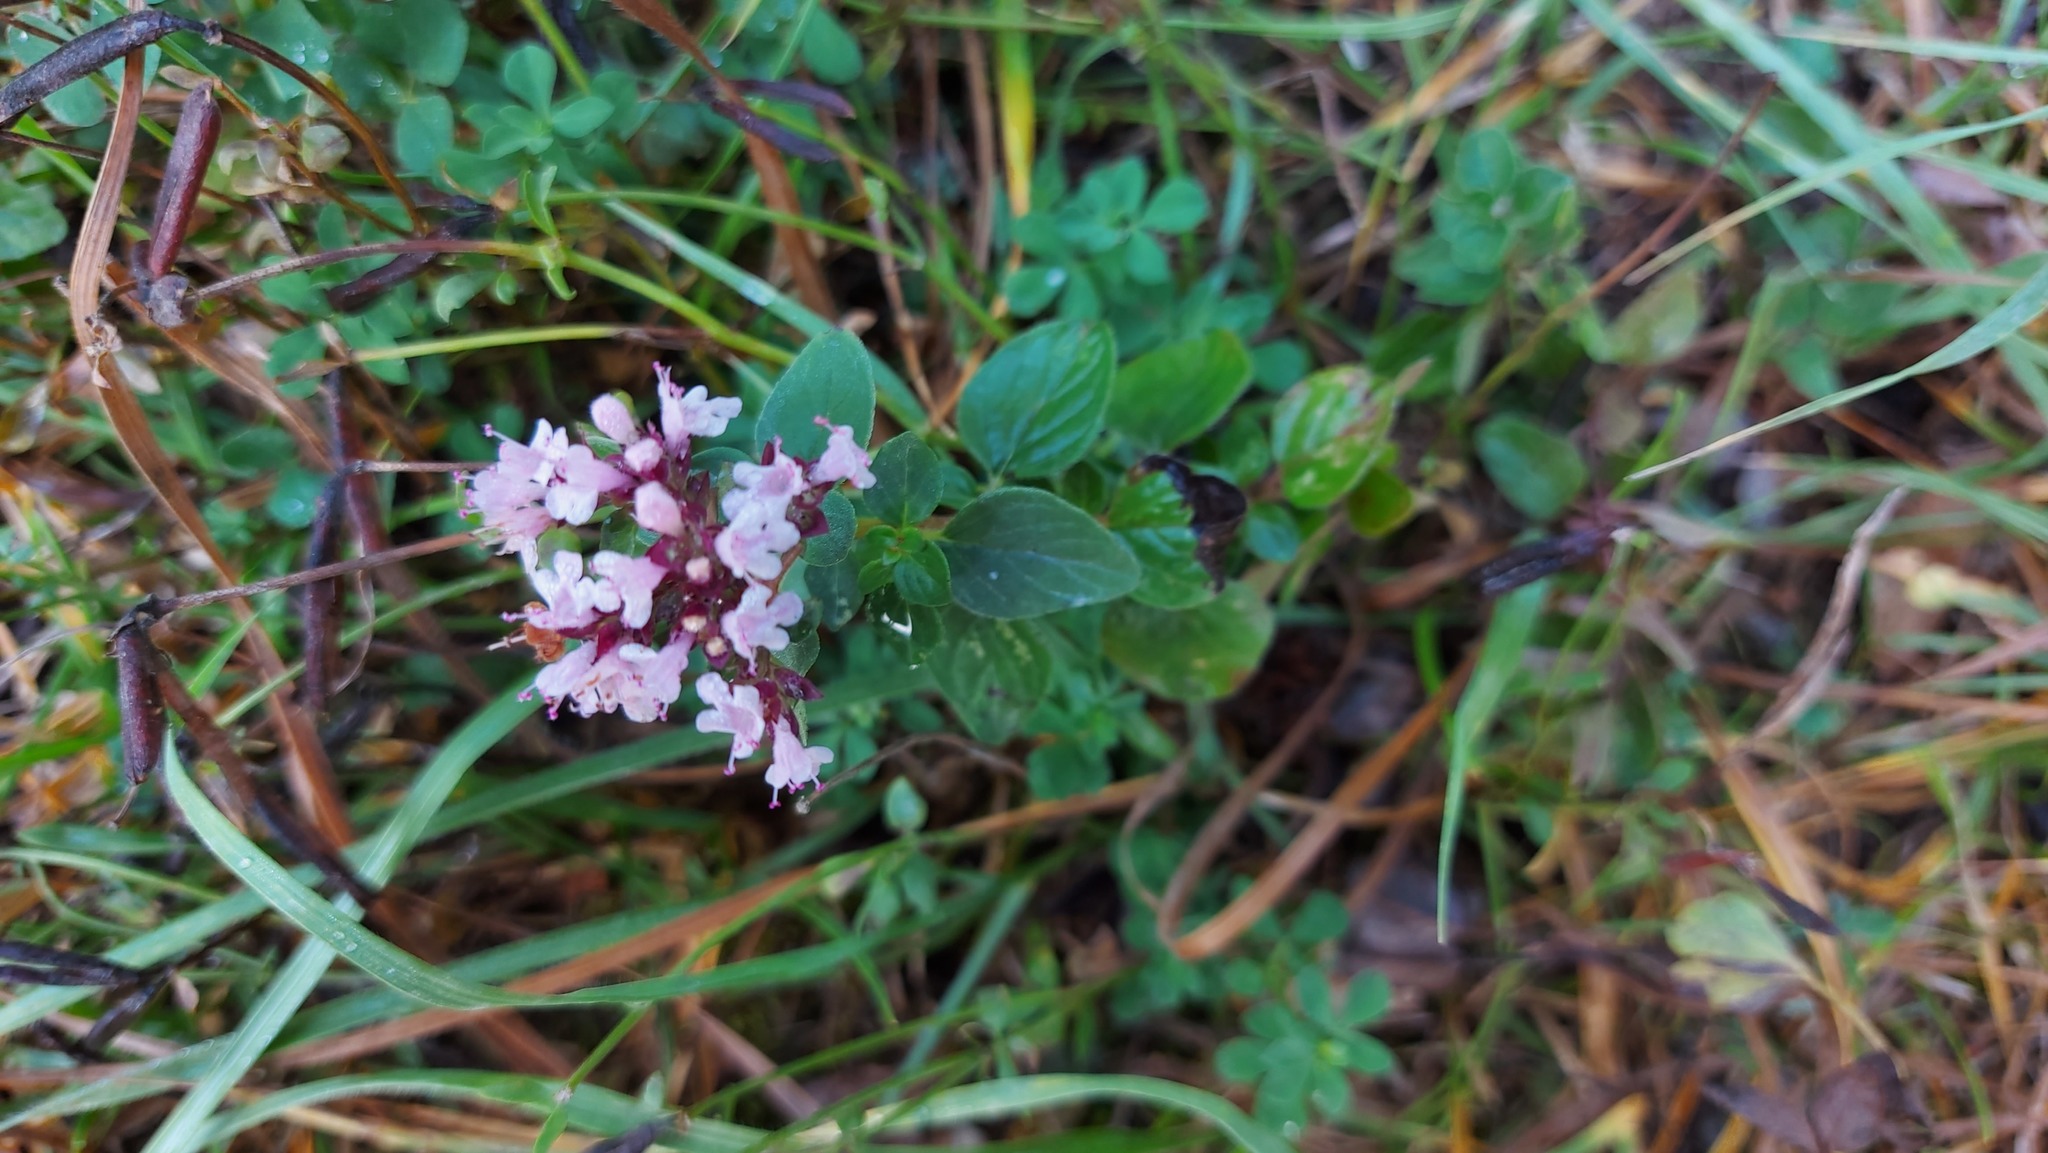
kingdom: Plantae
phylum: Tracheophyta
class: Magnoliopsida
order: Lamiales
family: Lamiaceae
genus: Origanum
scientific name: Origanum vulgare
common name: Wild marjoram
